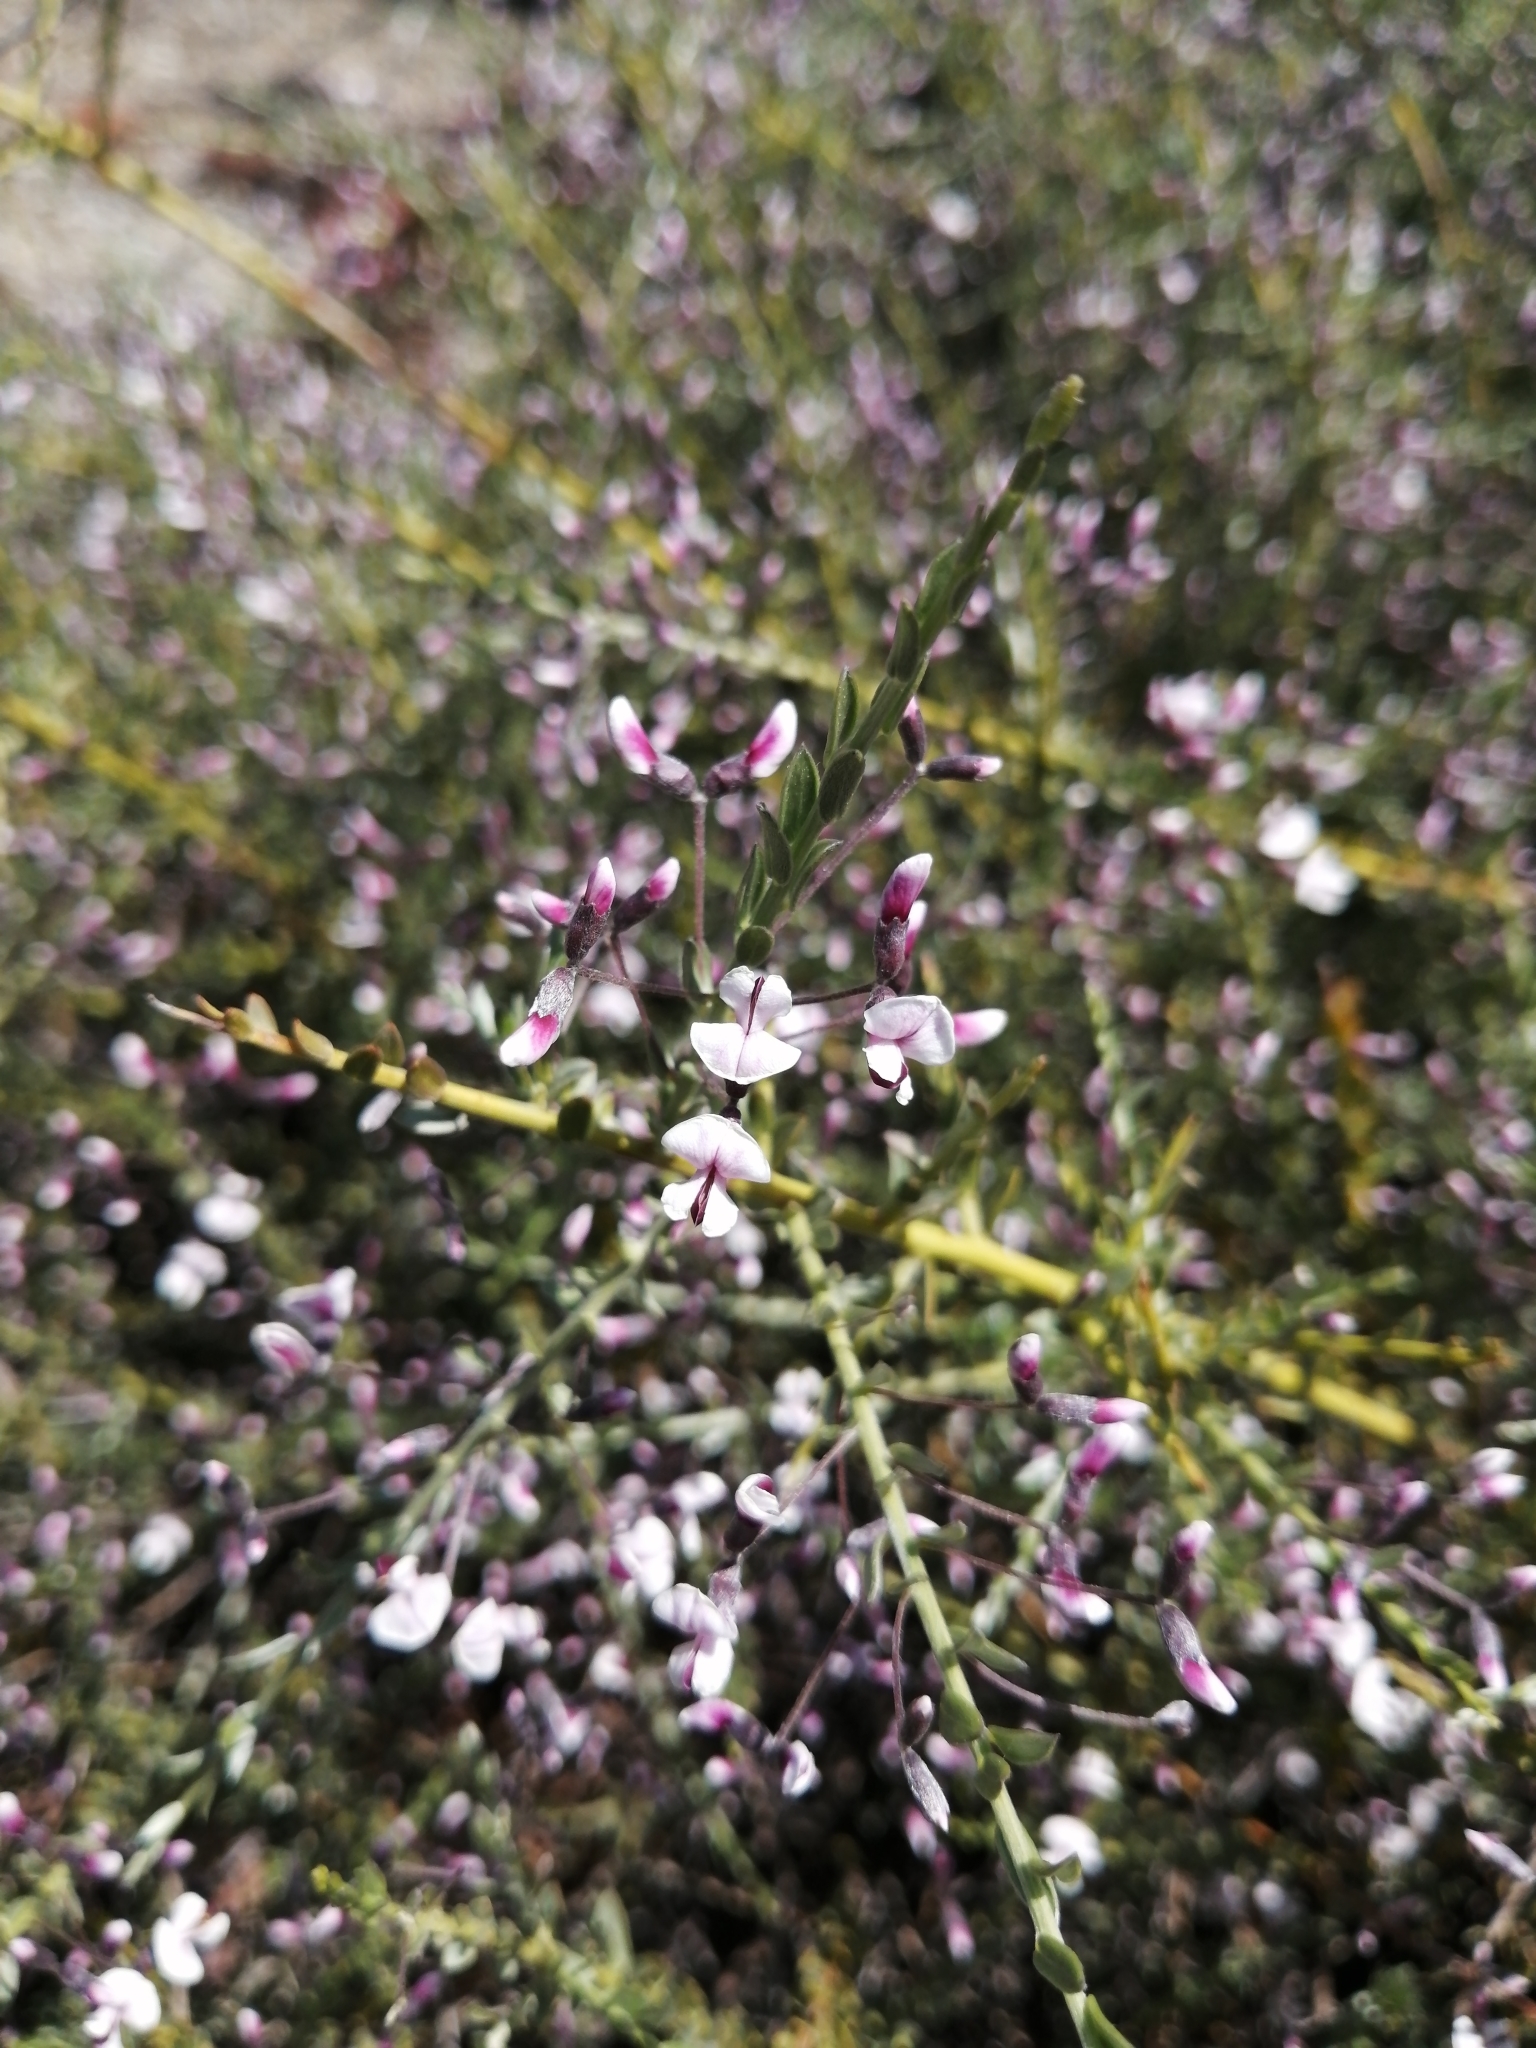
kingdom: Plantae
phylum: Tracheophyta
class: Magnoliopsida
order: Fabales
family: Fabaceae
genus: Amphithalea
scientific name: Amphithalea spinosa
